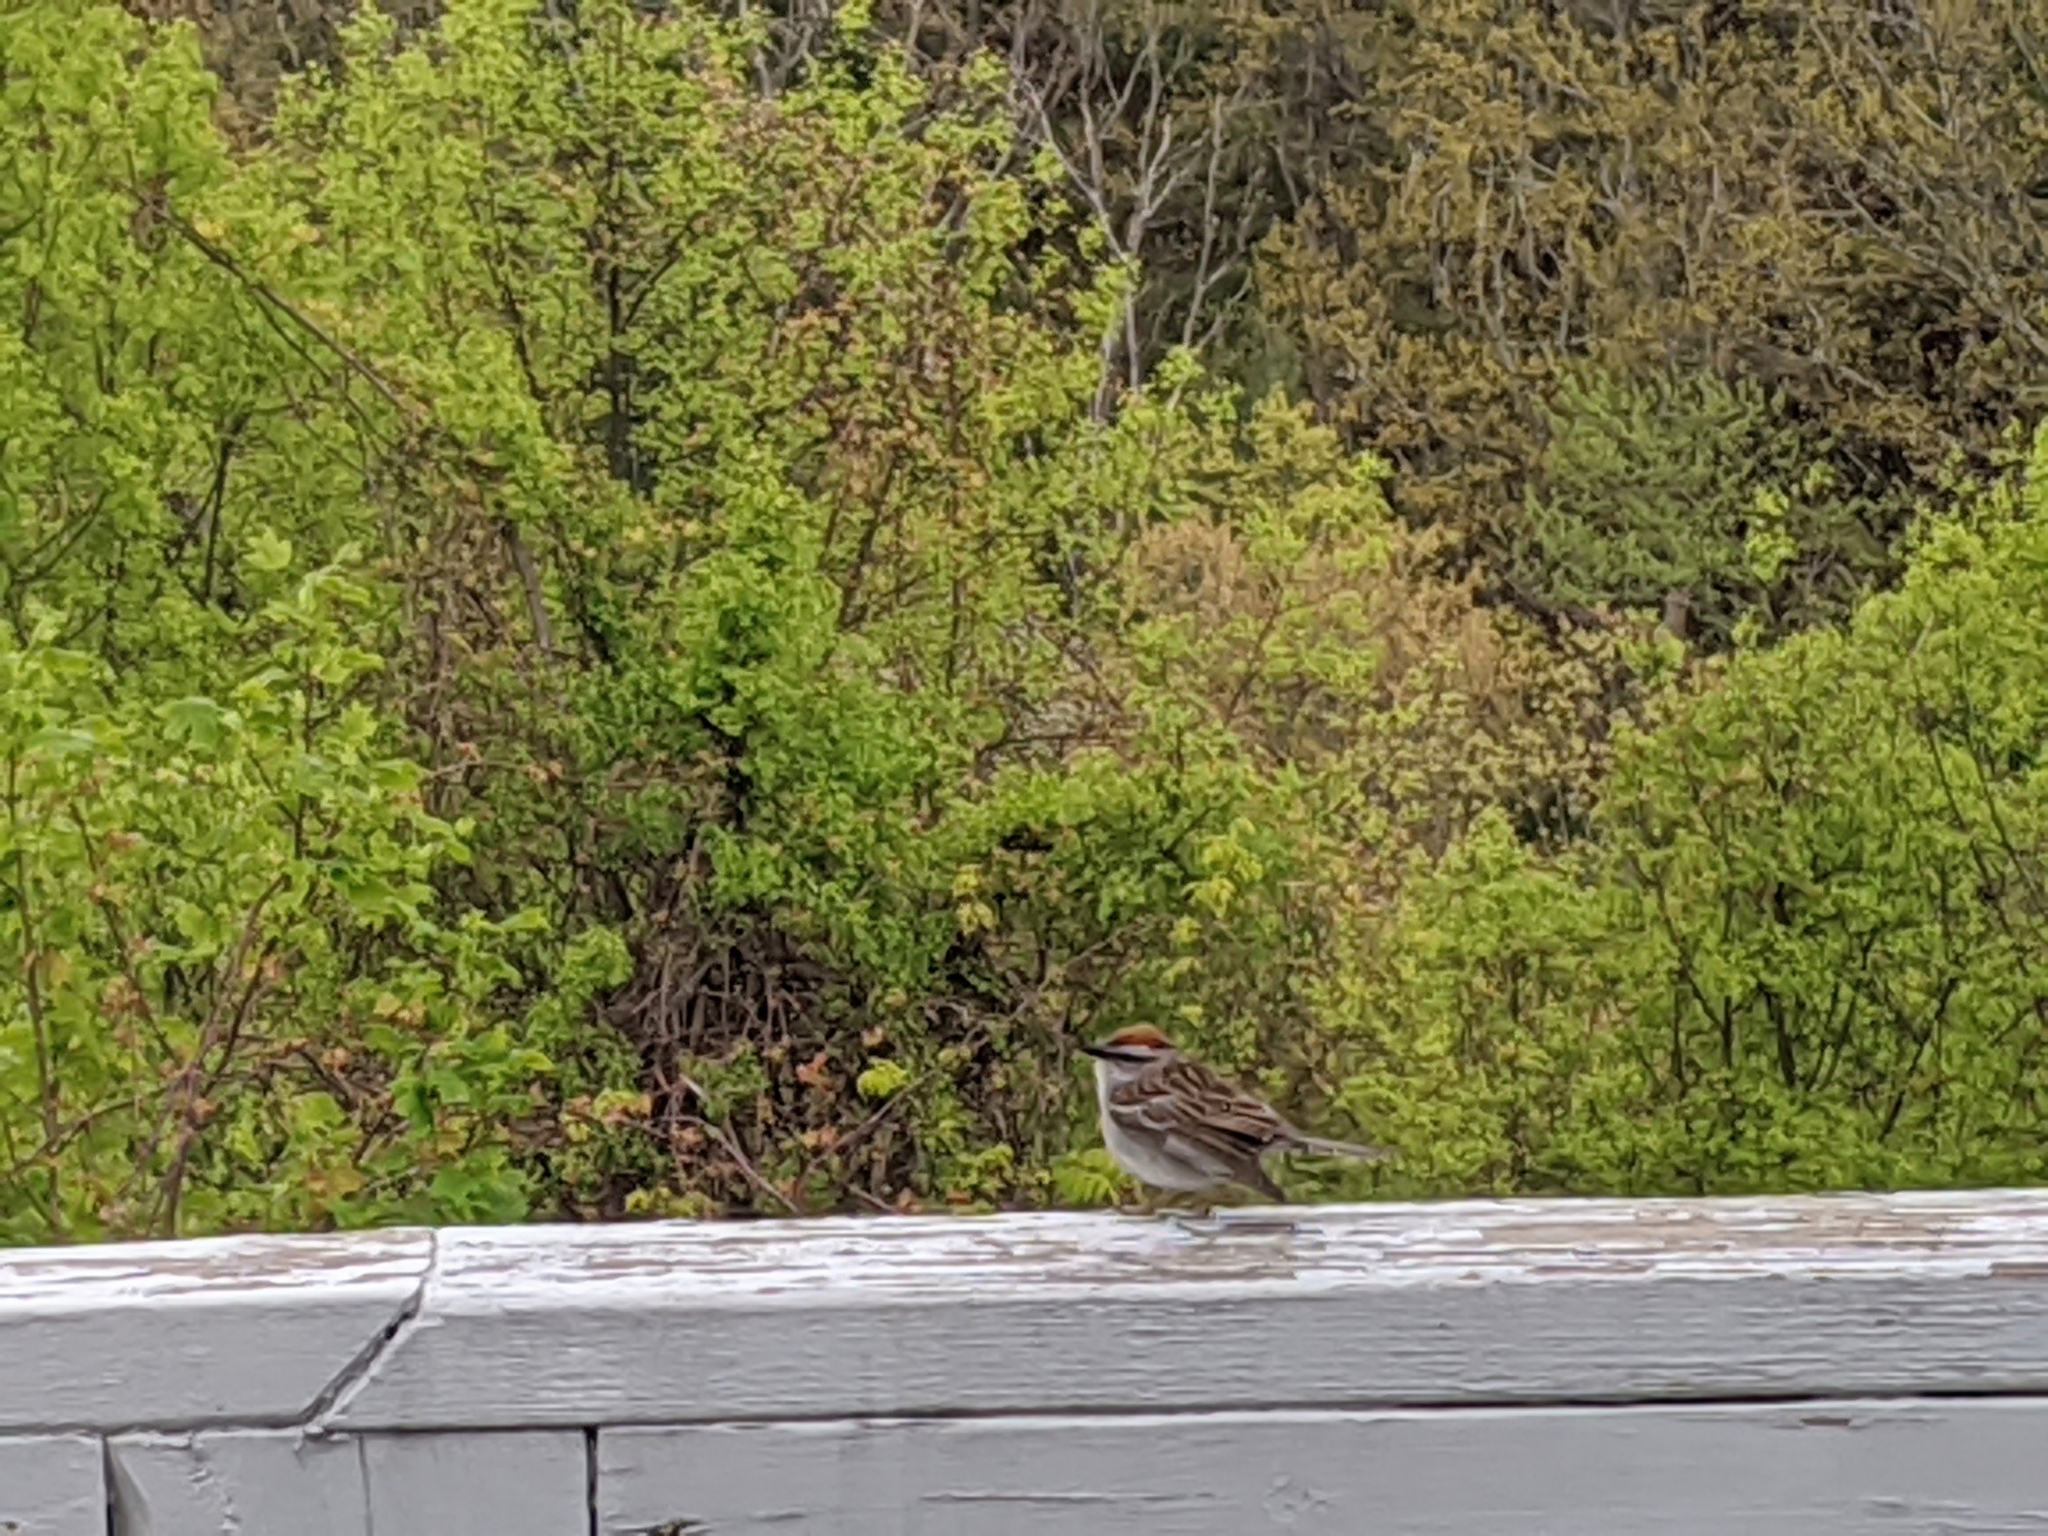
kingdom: Animalia
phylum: Chordata
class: Aves
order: Passeriformes
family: Passerellidae
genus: Spizella
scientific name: Spizella passerina
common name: Chipping sparrow
